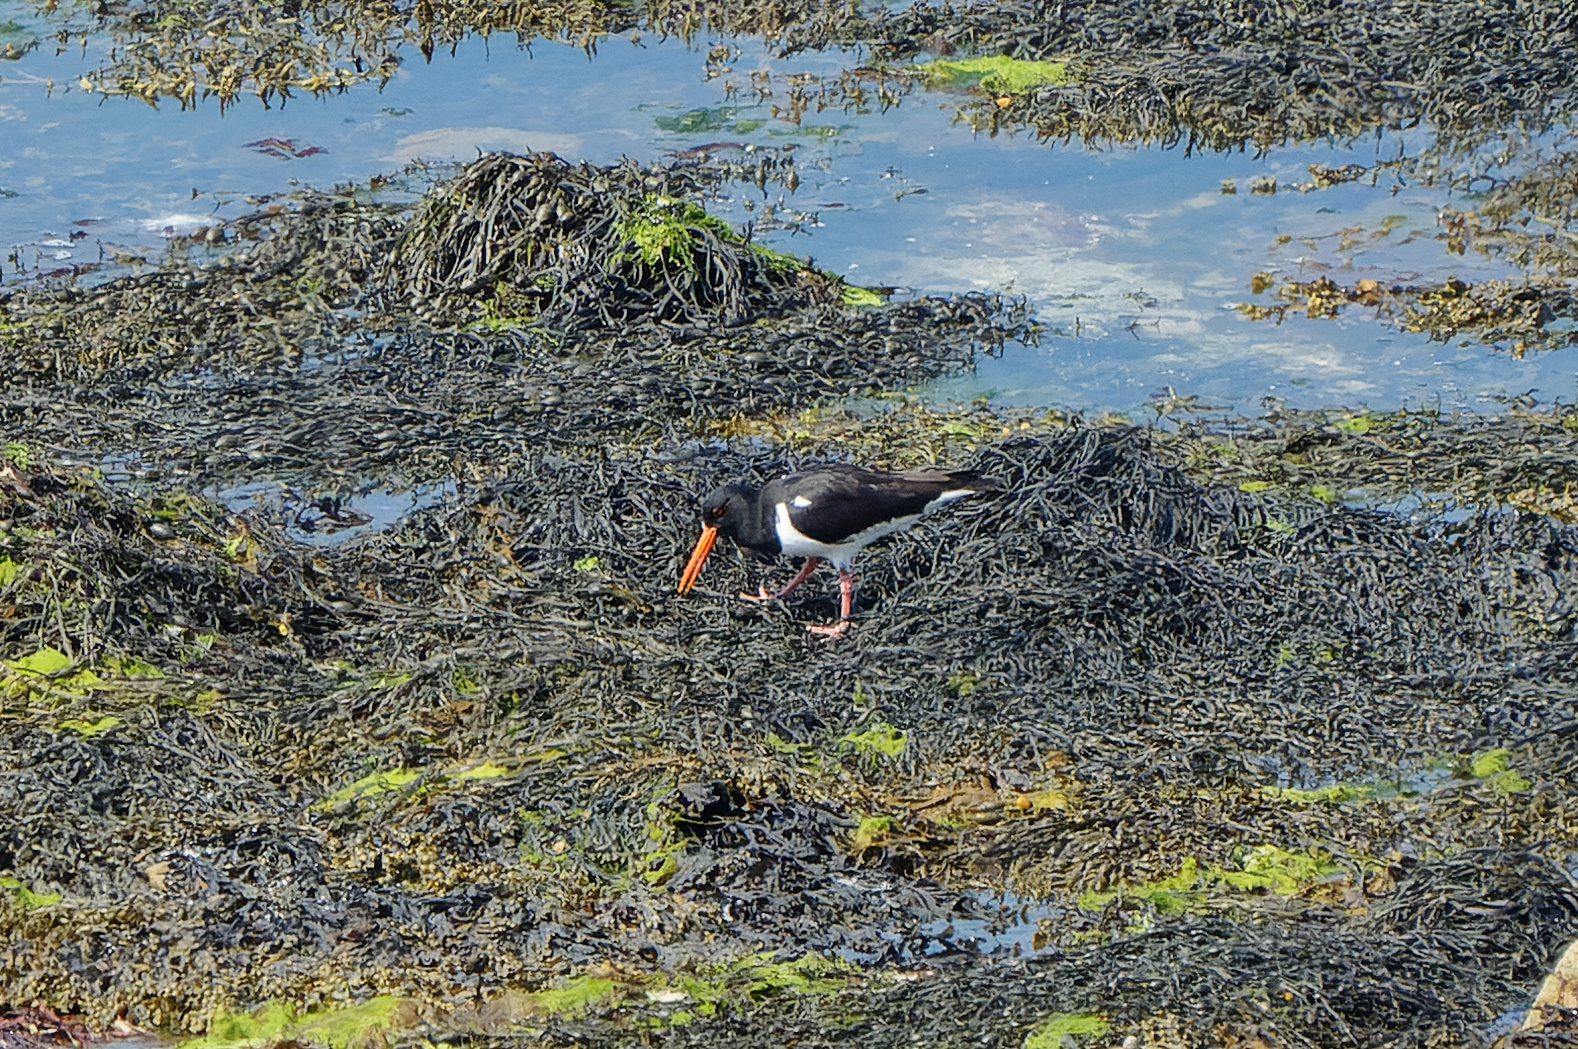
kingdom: Animalia
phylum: Chordata
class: Aves
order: Charadriiformes
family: Haematopodidae
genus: Haematopus
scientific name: Haematopus ostralegus
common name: Eurasian oystercatcher
